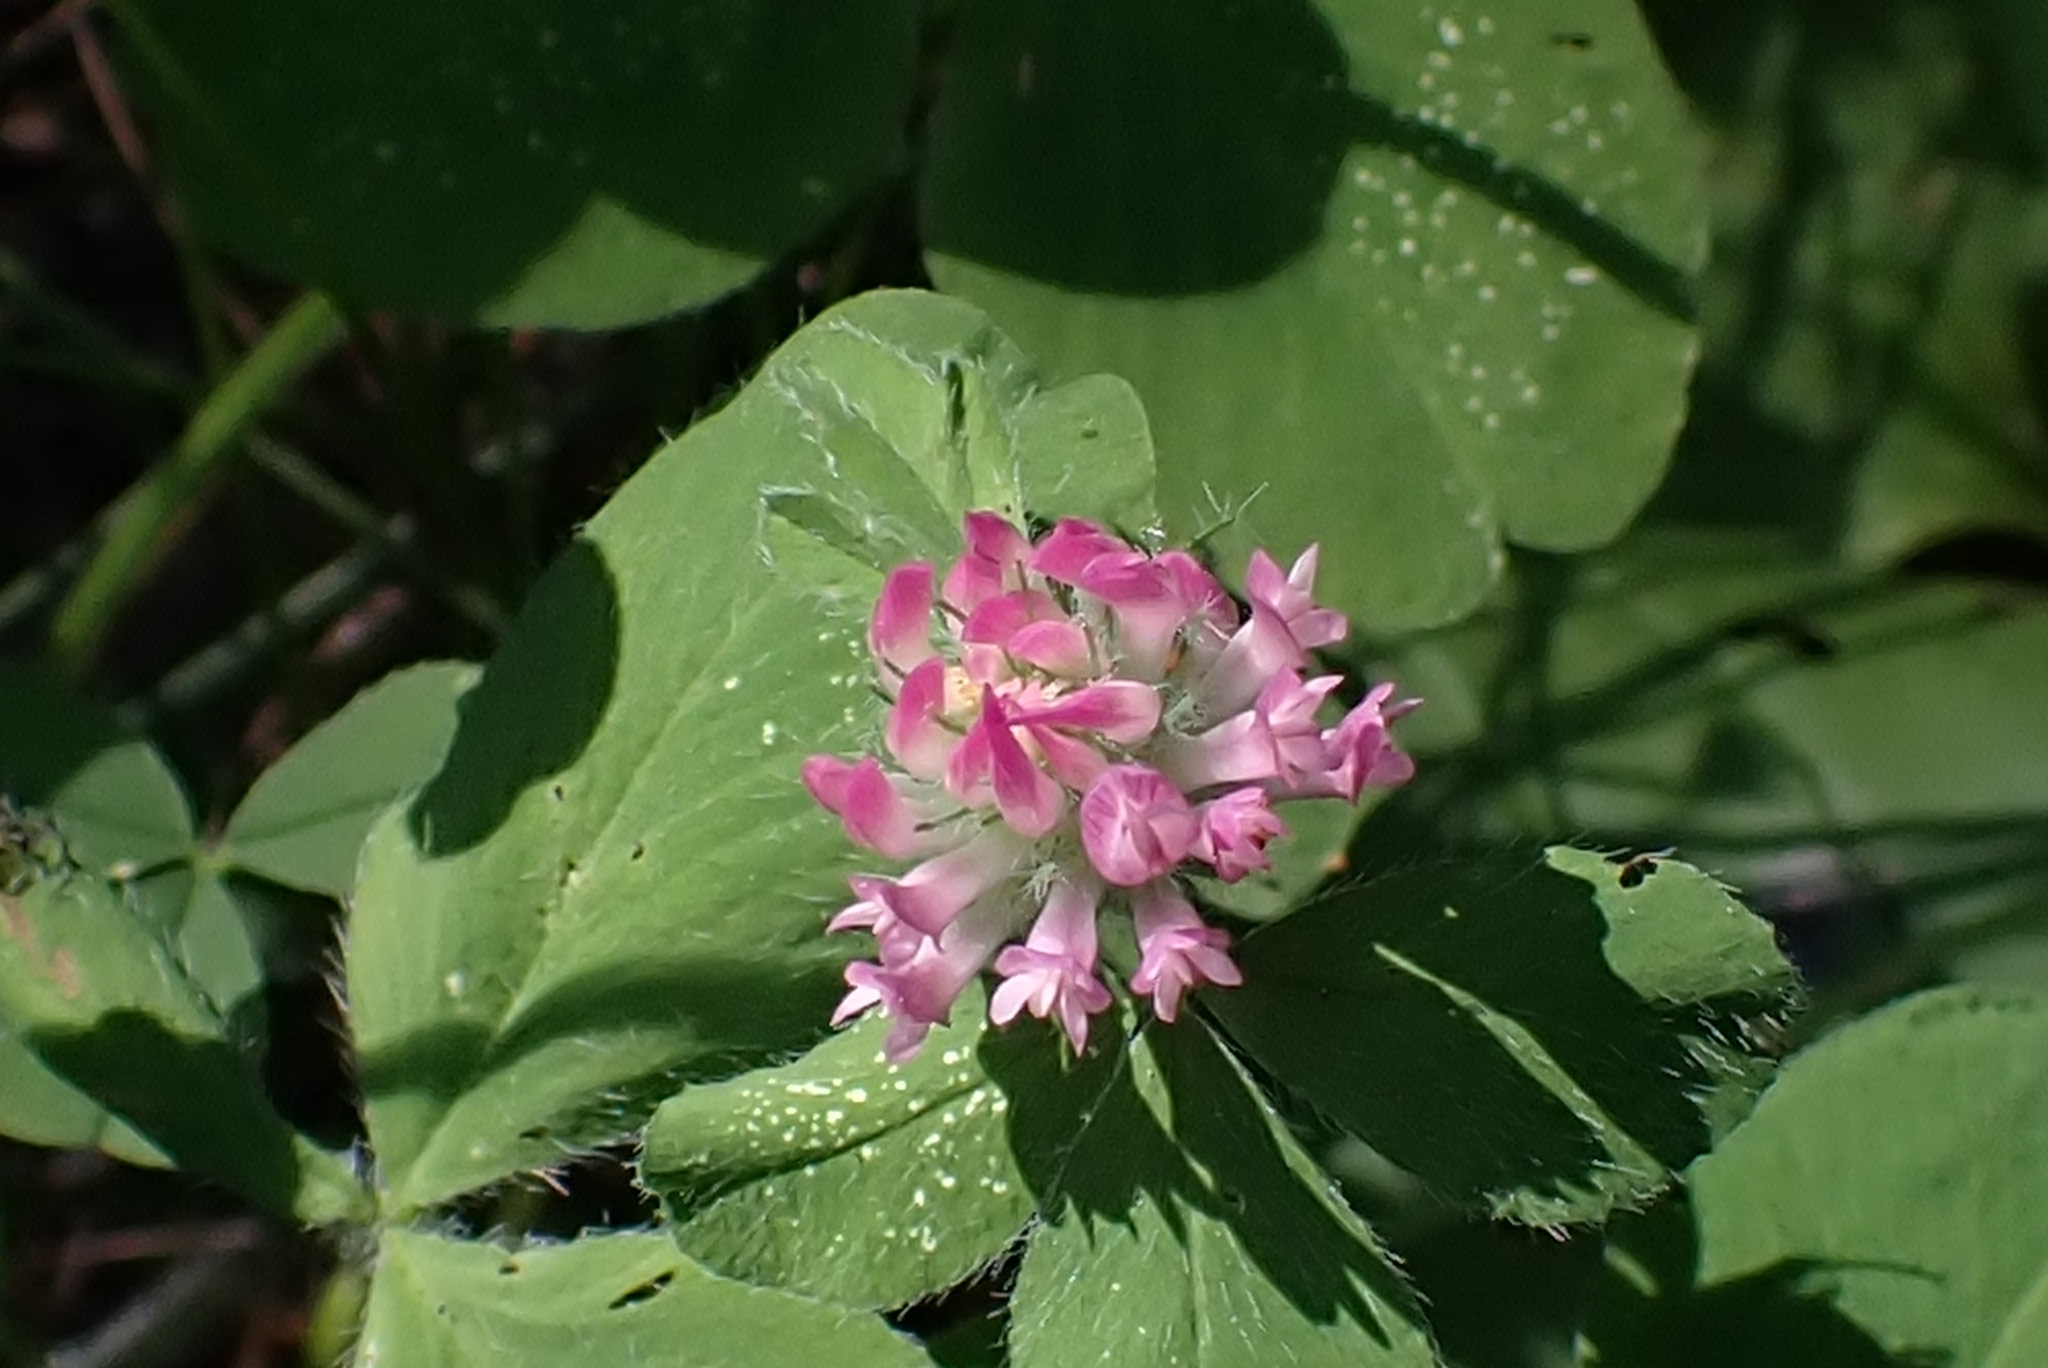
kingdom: Plantae
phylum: Tracheophyta
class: Magnoliopsida
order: Fabales
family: Fabaceae
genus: Trifolium
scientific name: Trifolium pratense
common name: Red clover
